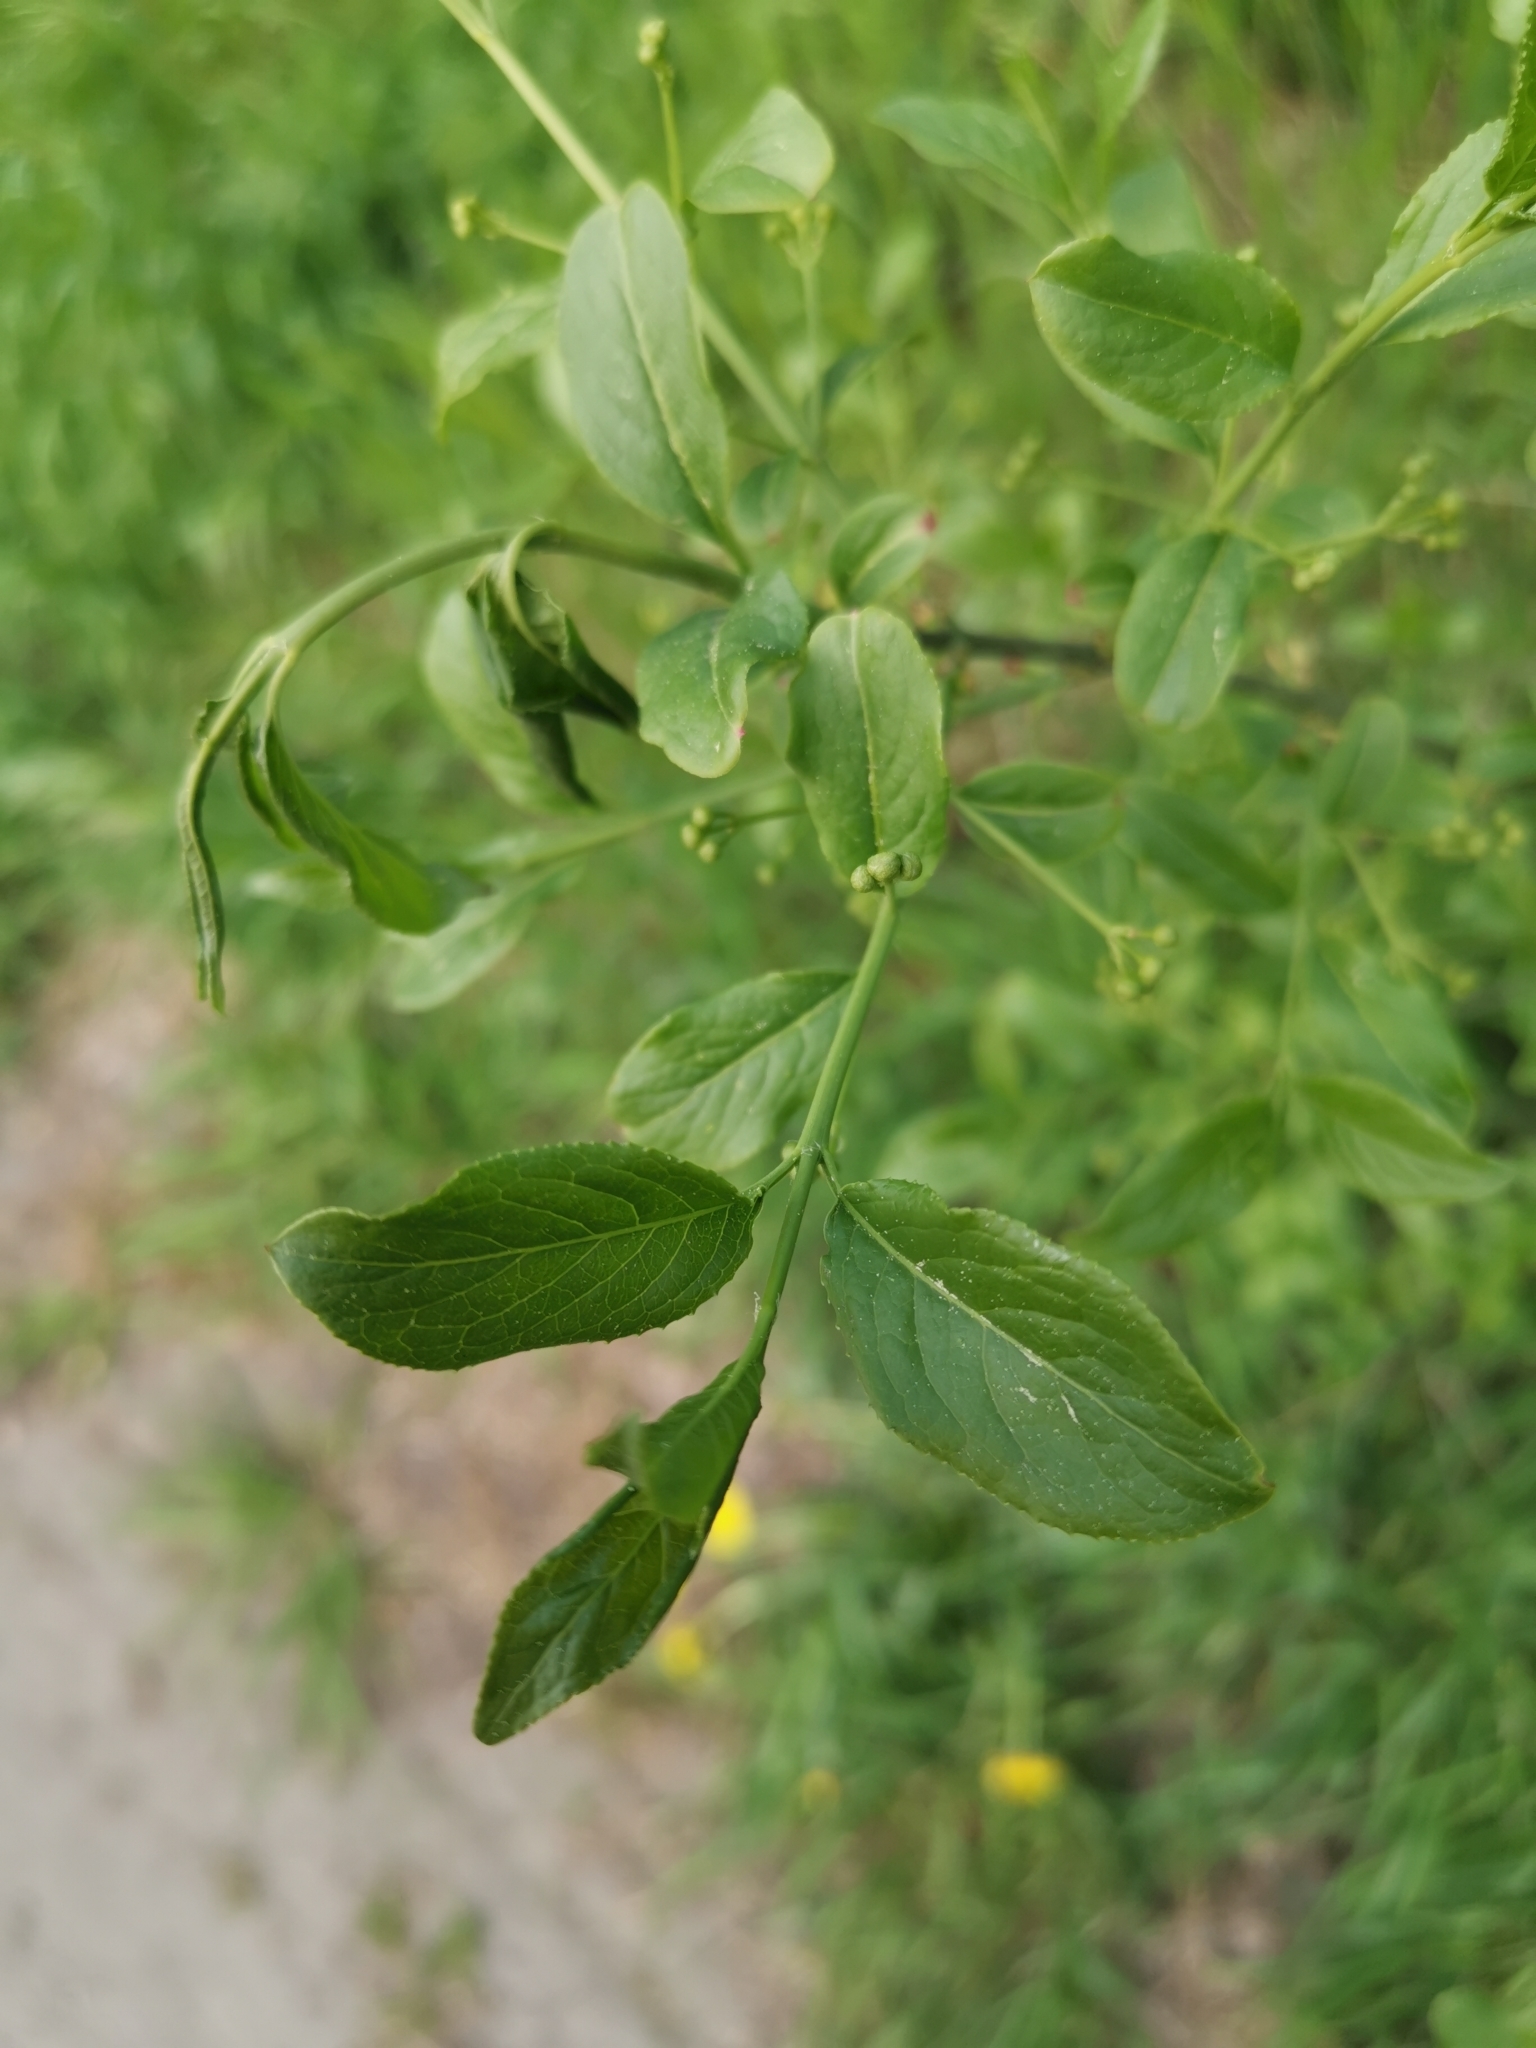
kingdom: Plantae
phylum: Tracheophyta
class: Magnoliopsida
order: Celastrales
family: Celastraceae
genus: Euonymus
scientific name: Euonymus europaeus
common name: Spindle
